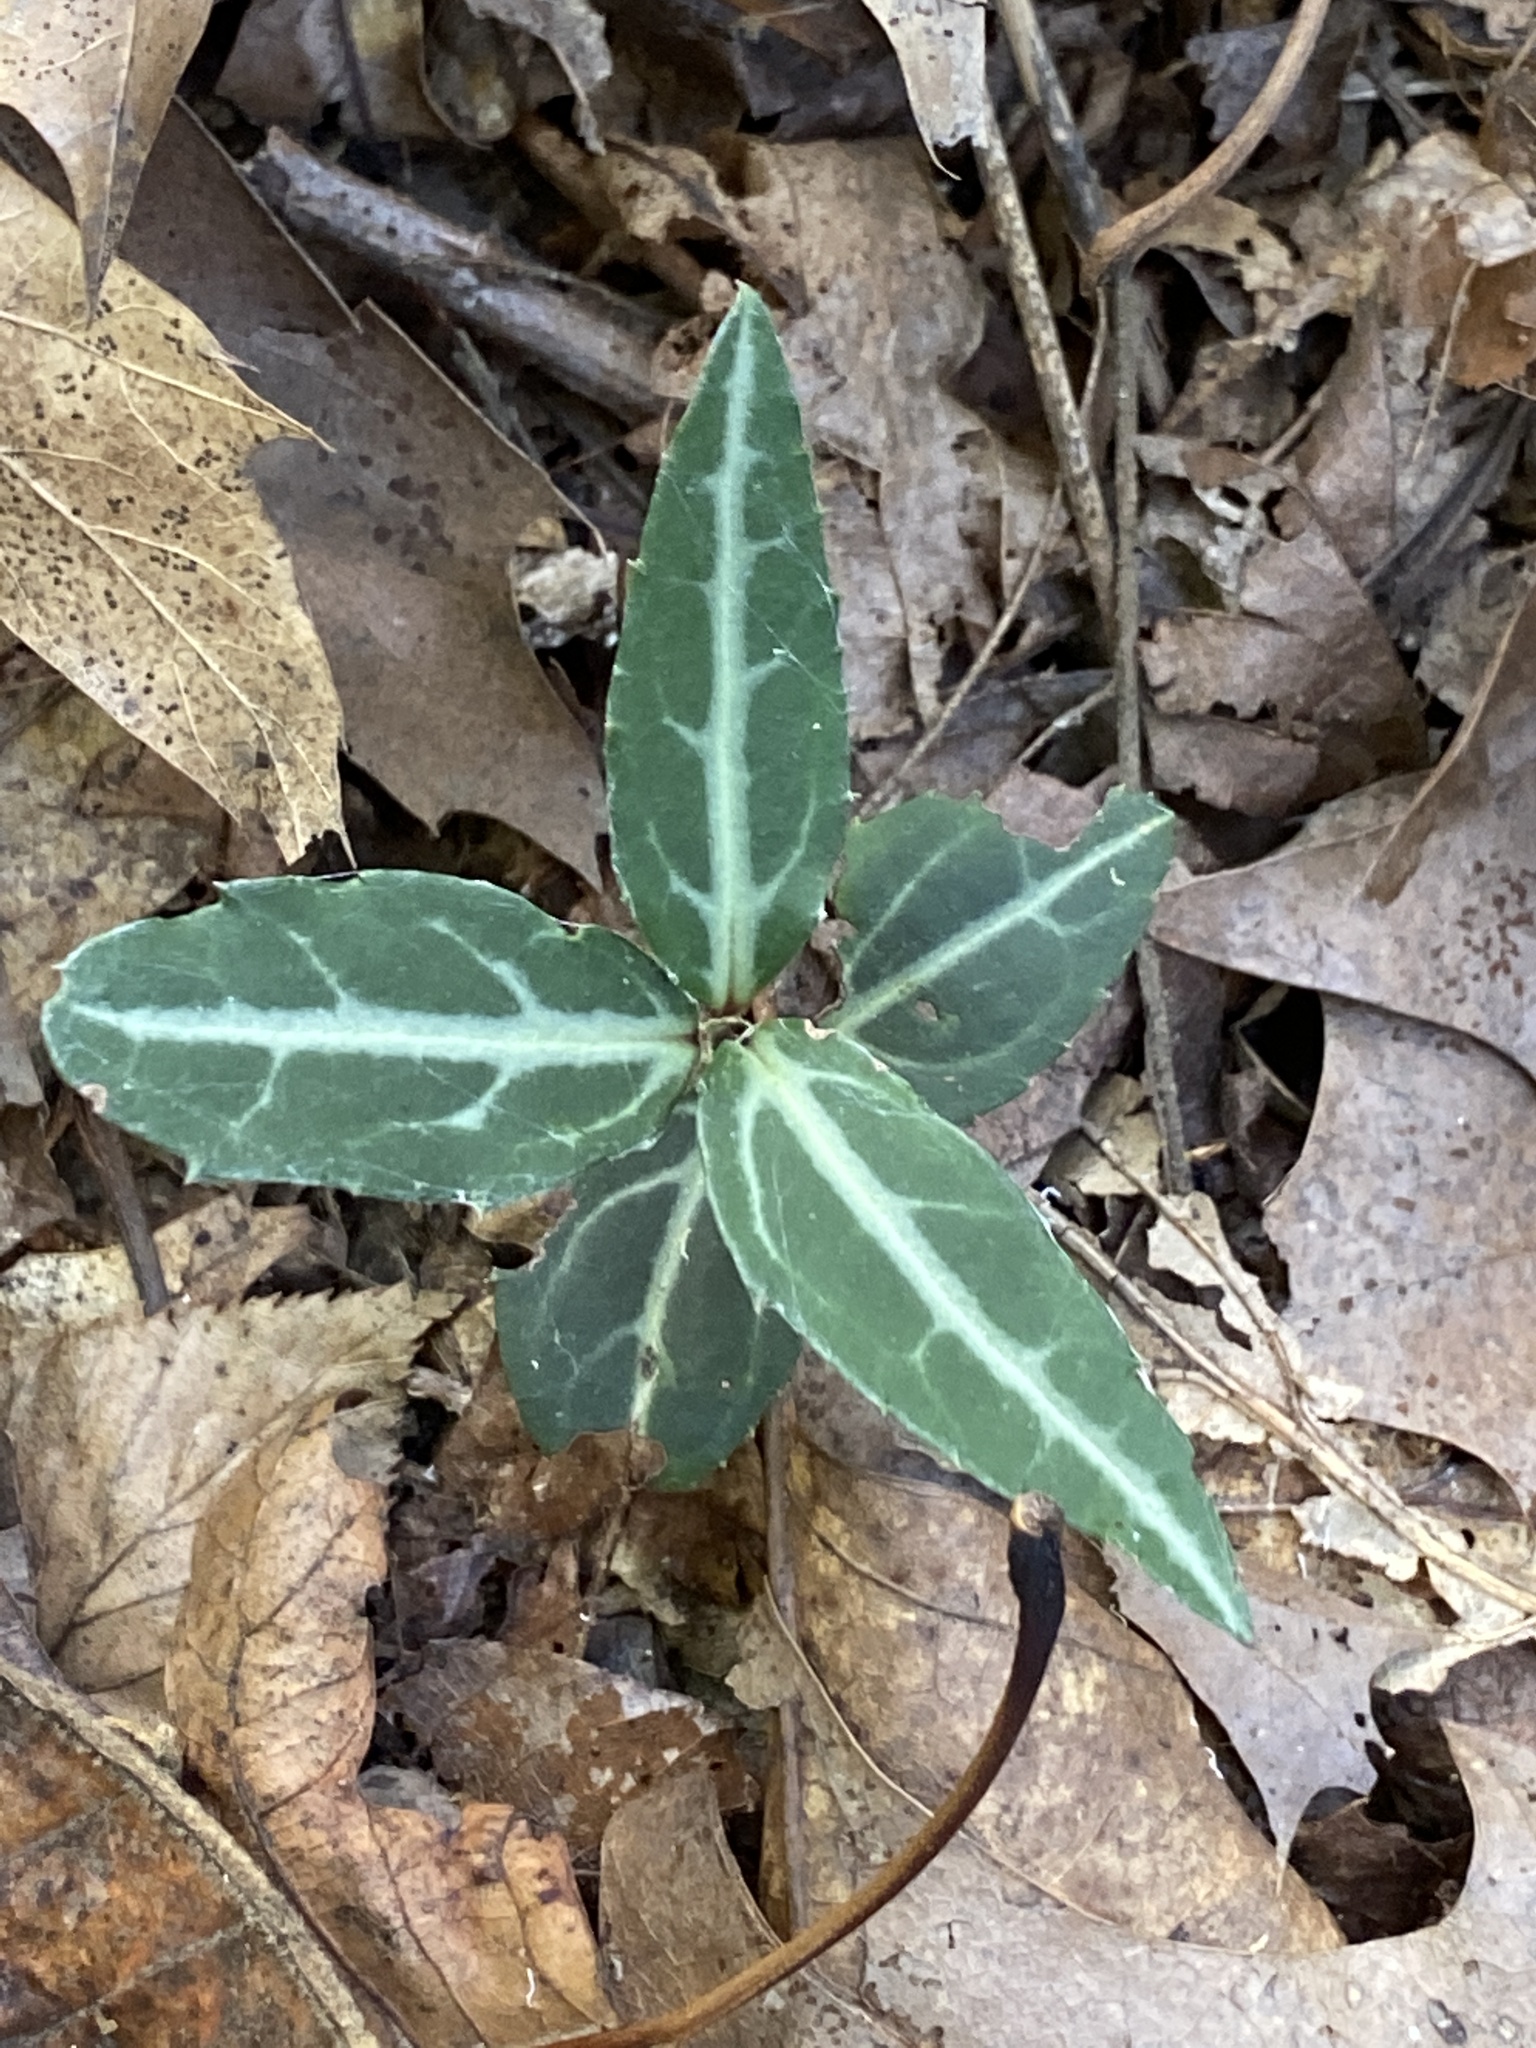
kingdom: Plantae
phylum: Tracheophyta
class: Magnoliopsida
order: Ericales
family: Ericaceae
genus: Chimaphila
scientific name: Chimaphila maculata
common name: Spotted pipsissewa
